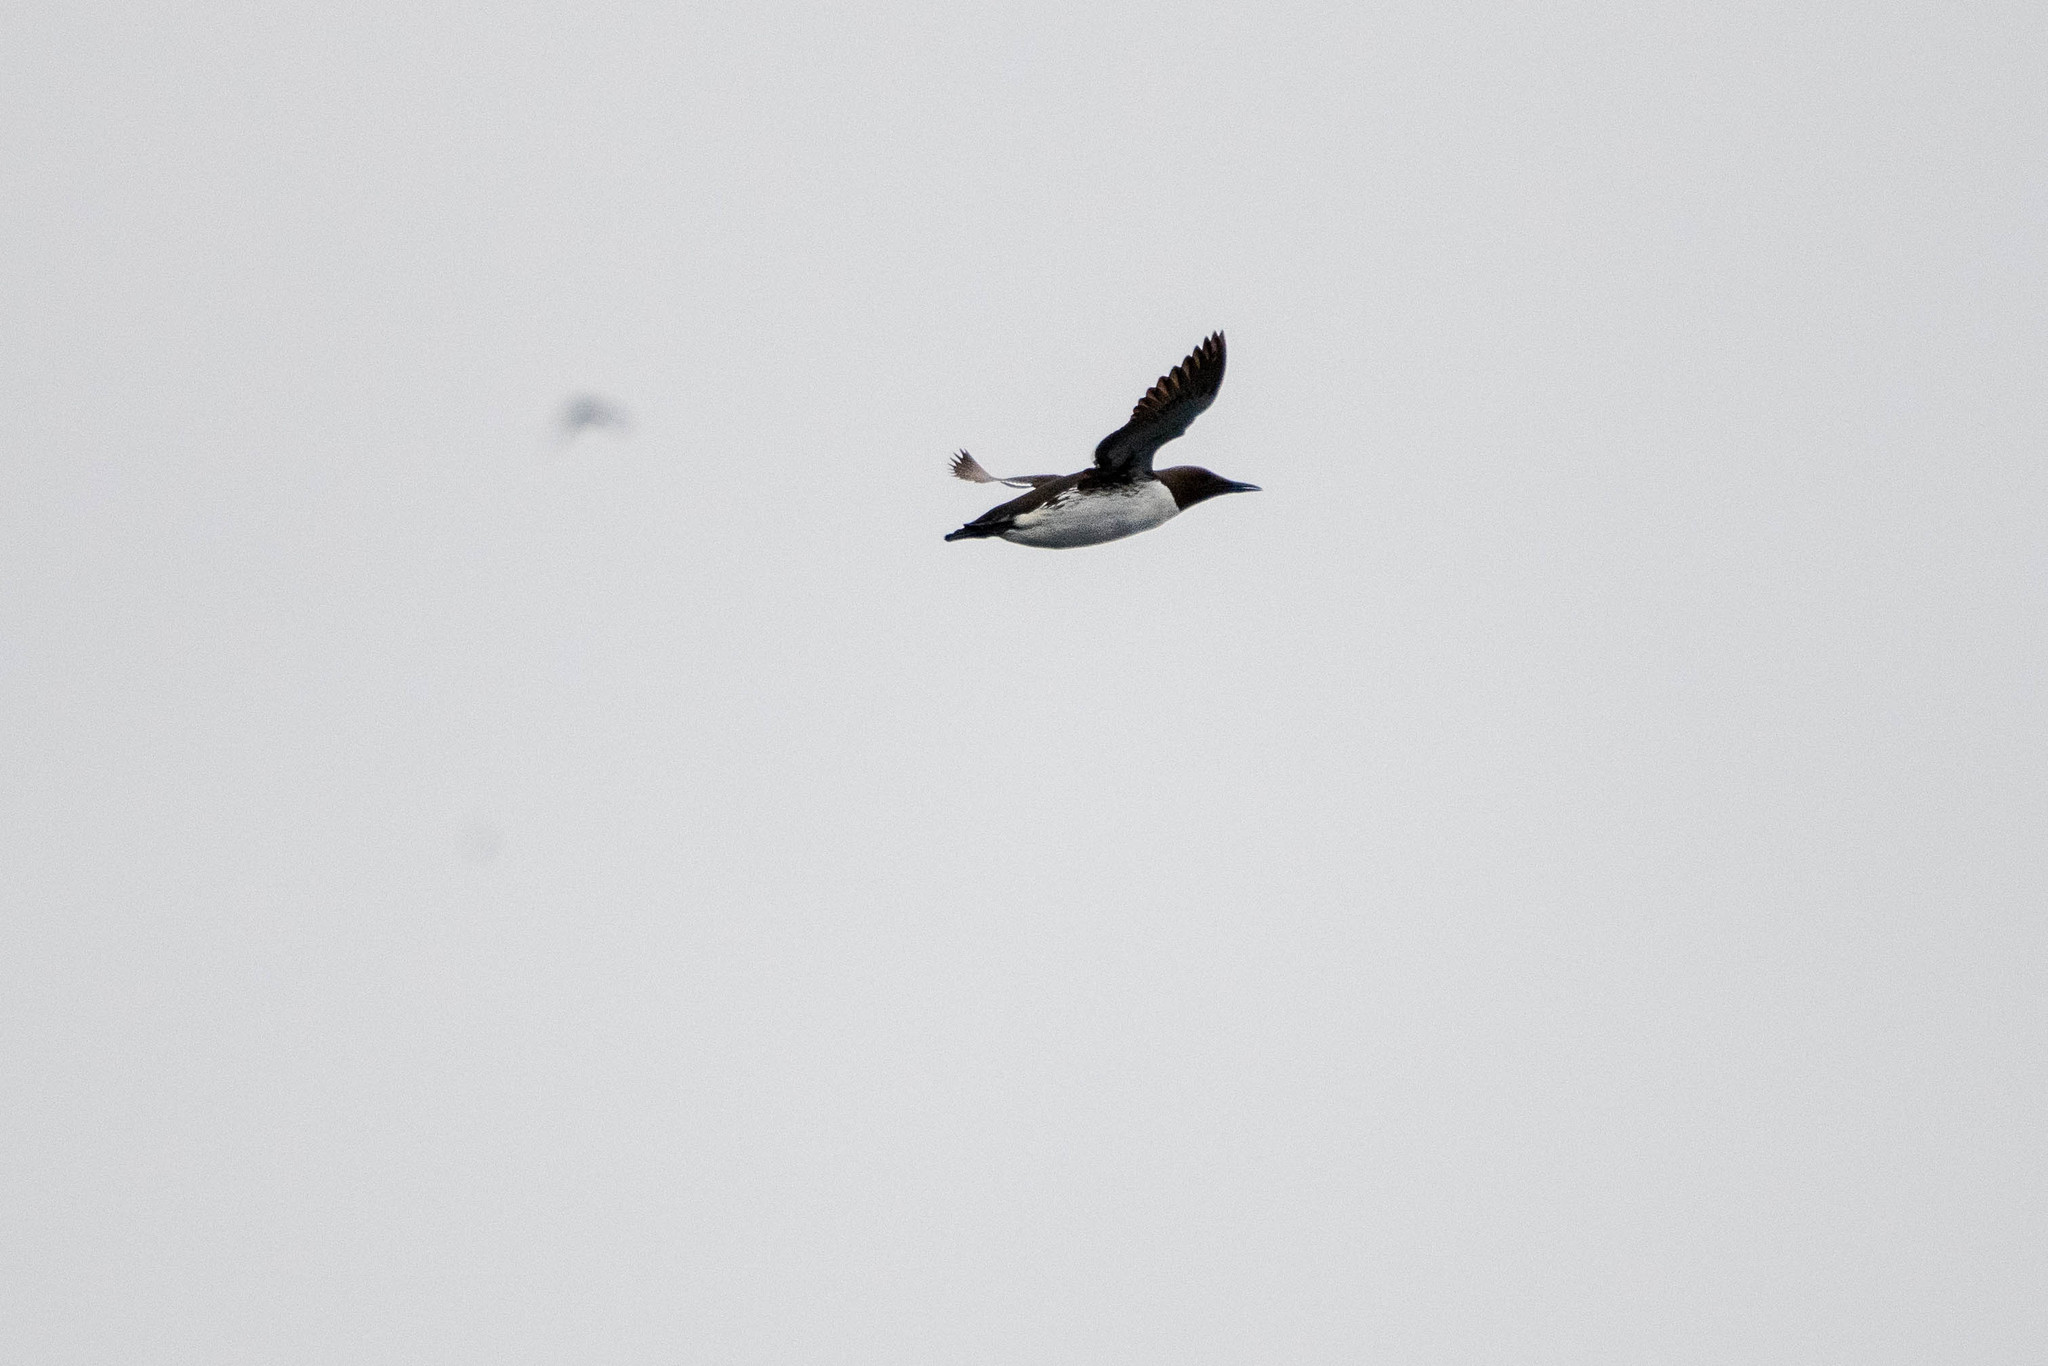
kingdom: Animalia
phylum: Chordata
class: Aves
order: Charadriiformes
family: Alcidae
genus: Uria
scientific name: Uria aalge
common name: Common murre
